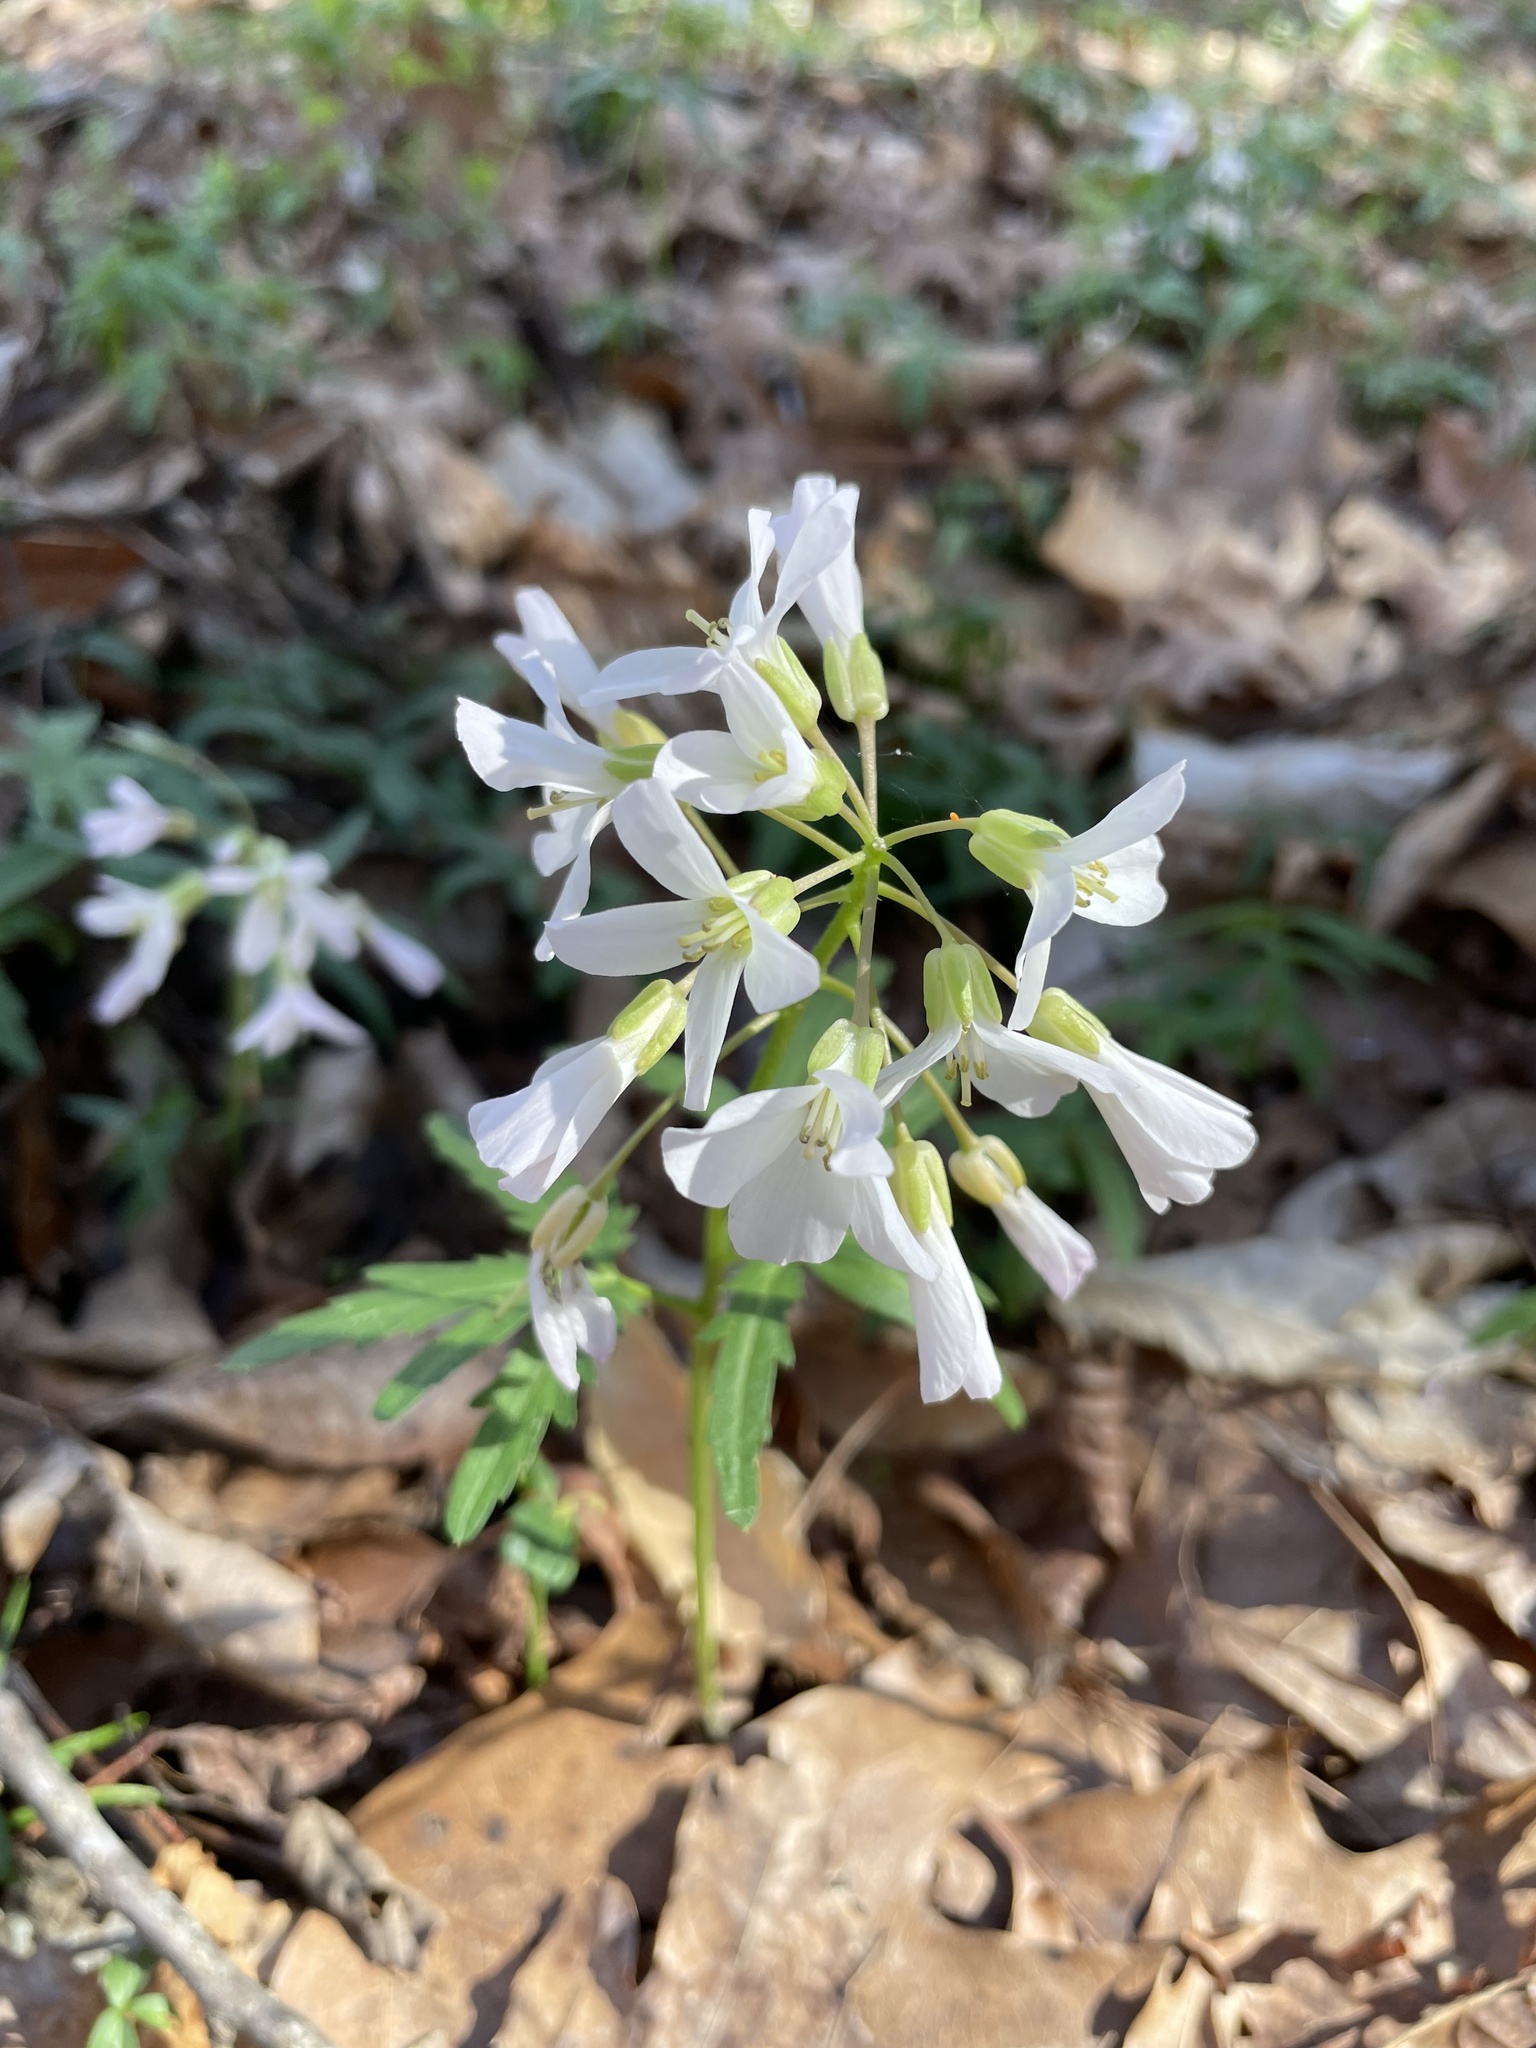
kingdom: Plantae
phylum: Tracheophyta
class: Magnoliopsida
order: Brassicales
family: Brassicaceae
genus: Cardamine
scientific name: Cardamine angustata
